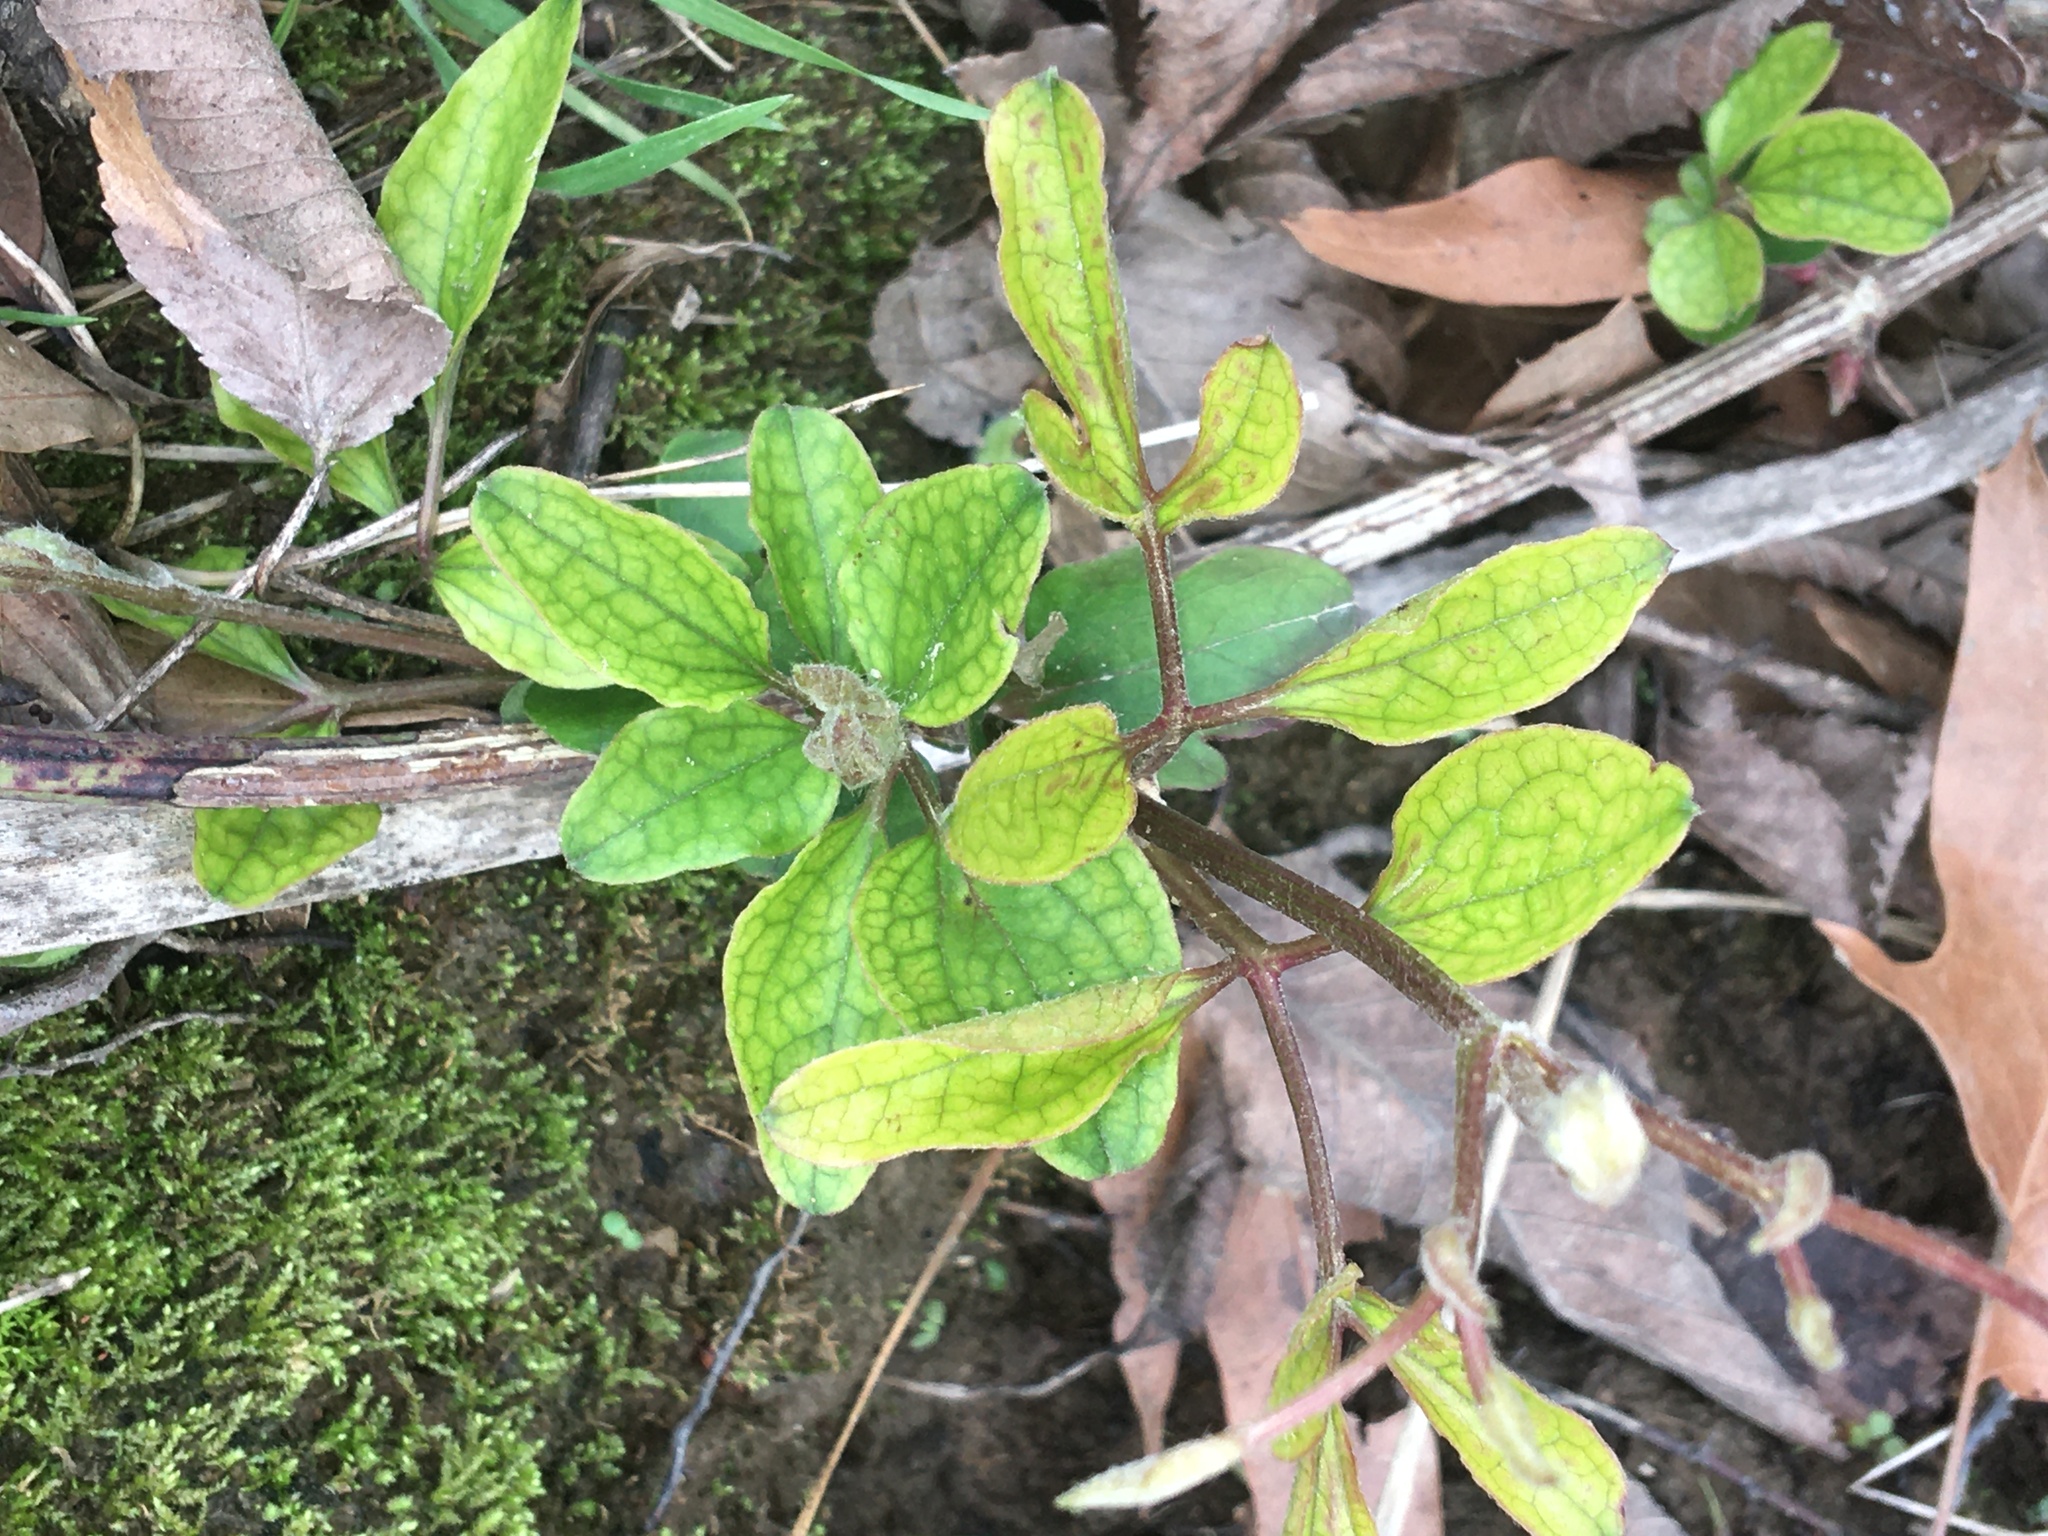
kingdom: Plantae
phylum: Tracheophyta
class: Magnoliopsida
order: Ranunculales
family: Ranunculaceae
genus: Clematis
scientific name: Clematis terniflora
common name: Sweet autumn clematis
